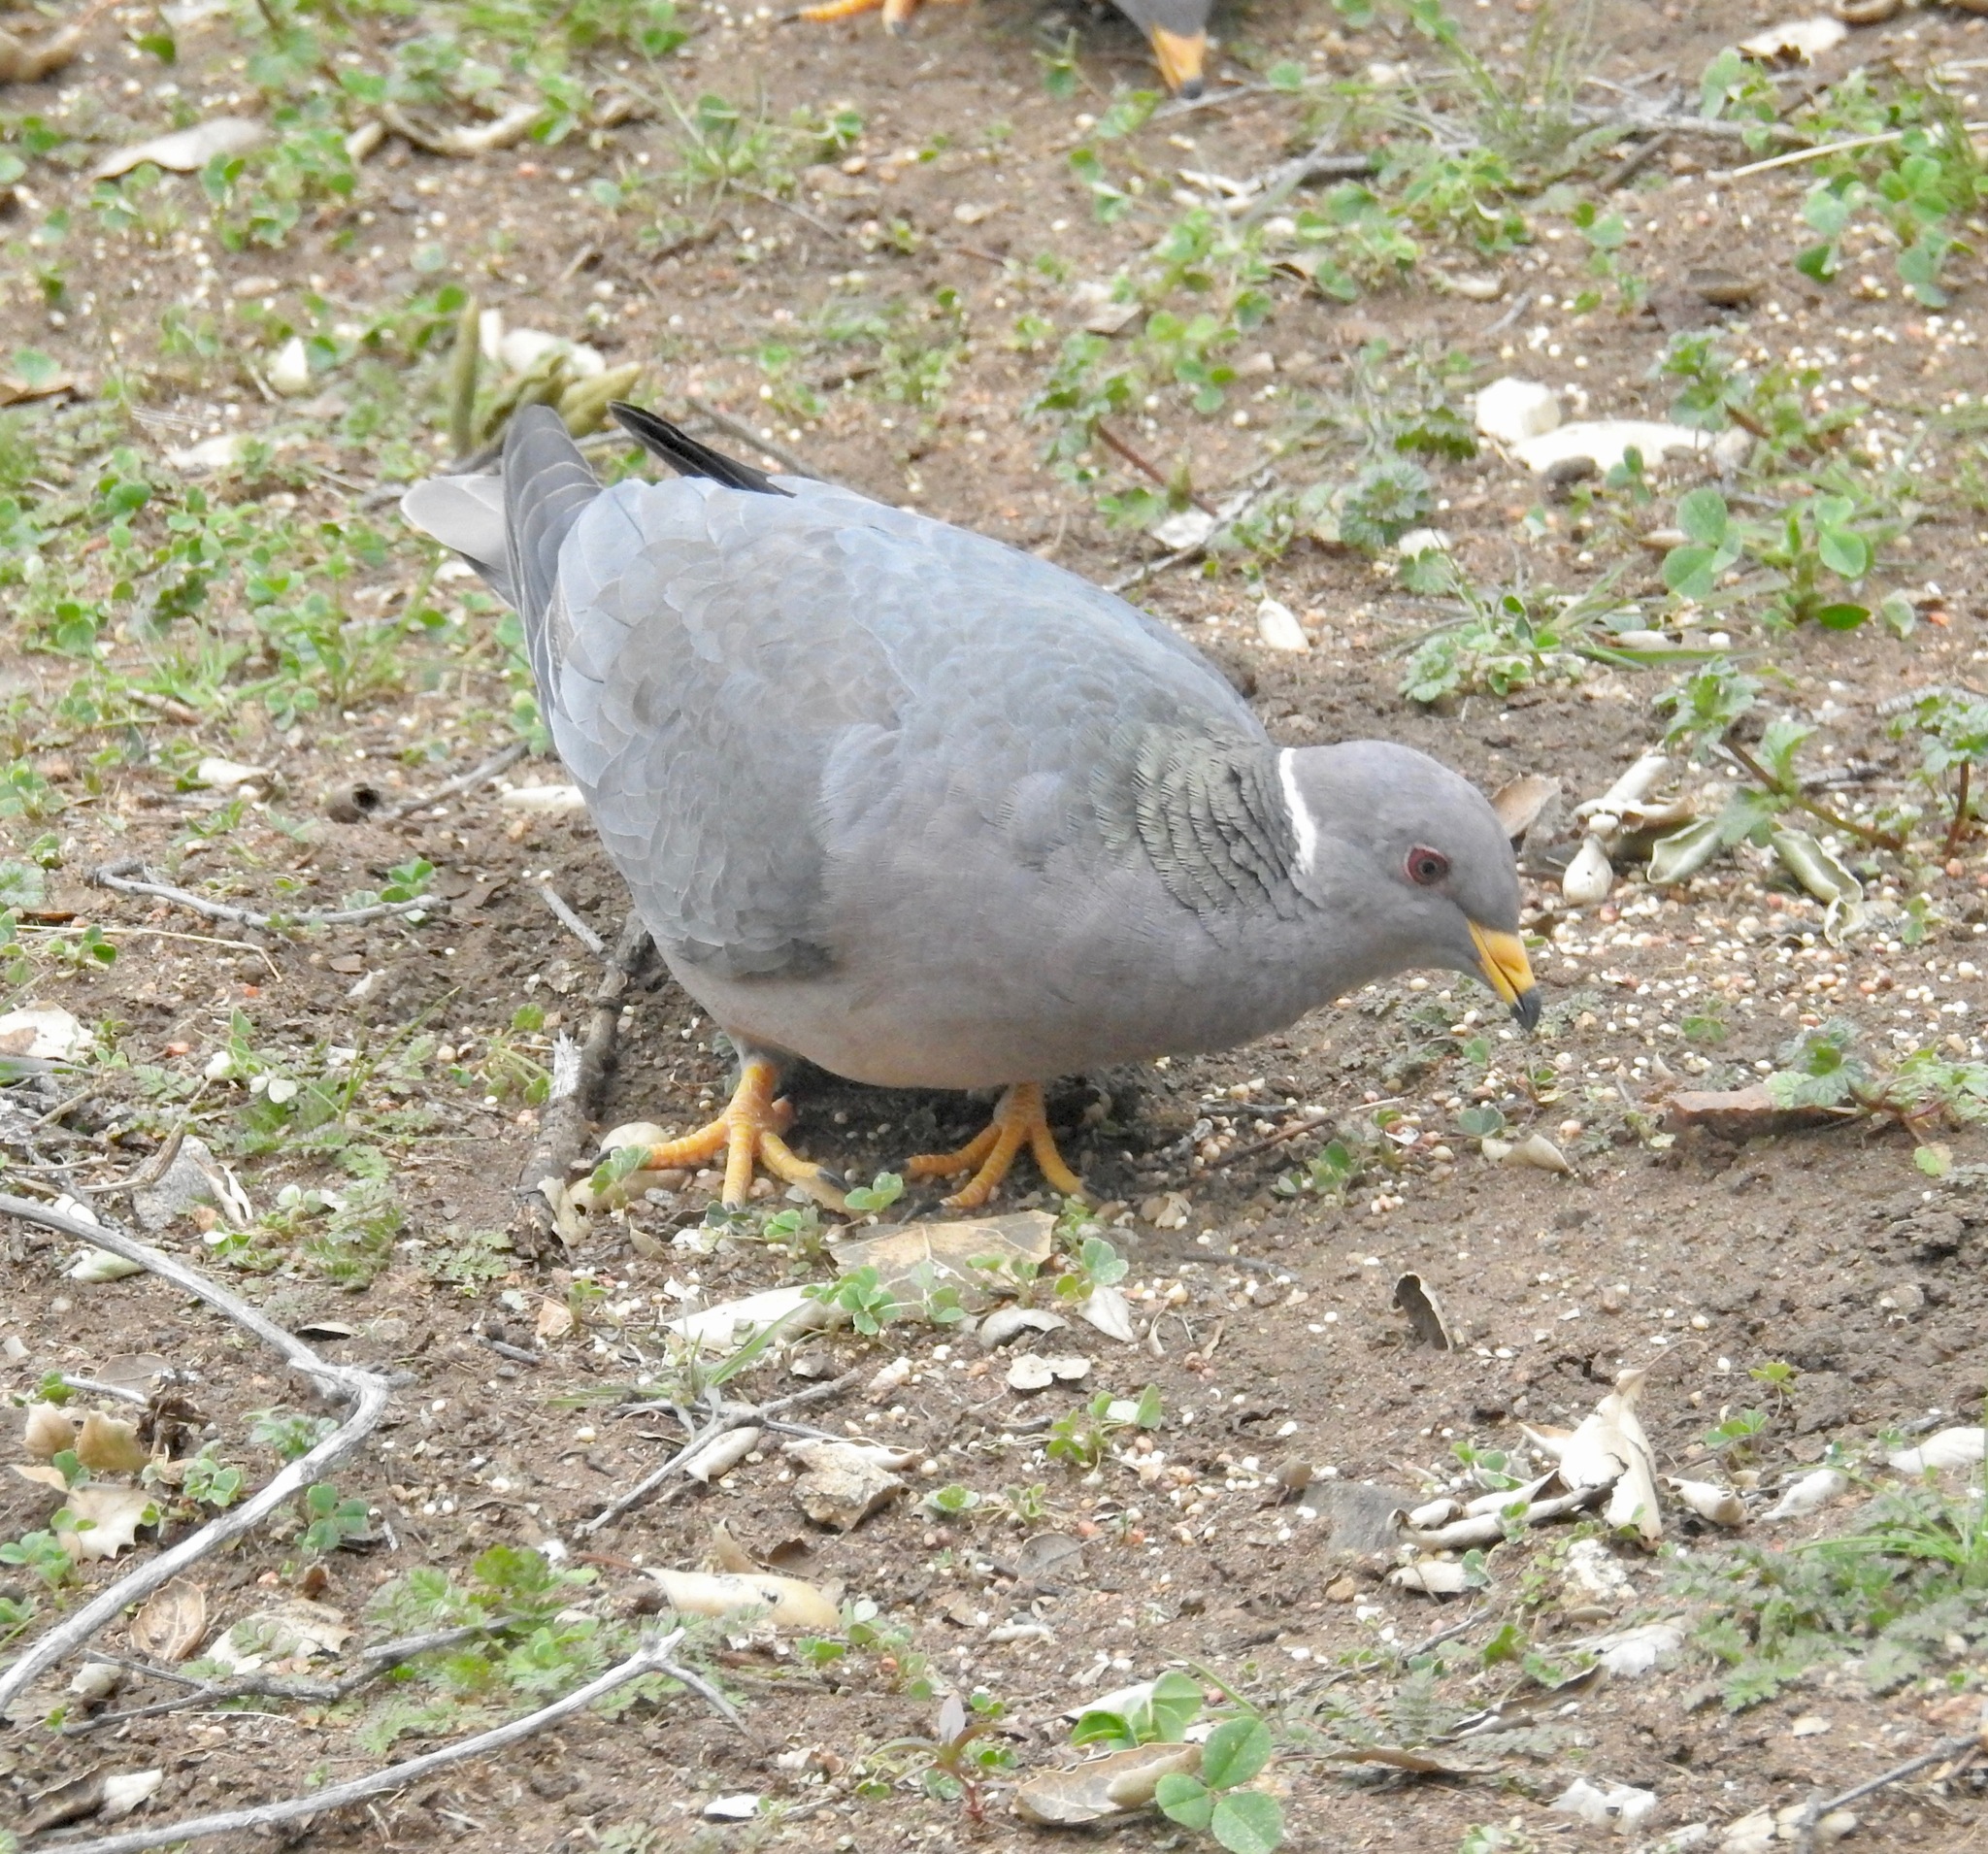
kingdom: Animalia
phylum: Chordata
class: Aves
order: Columbiformes
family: Columbidae
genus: Patagioenas
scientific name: Patagioenas fasciata
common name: Band-tailed pigeon
